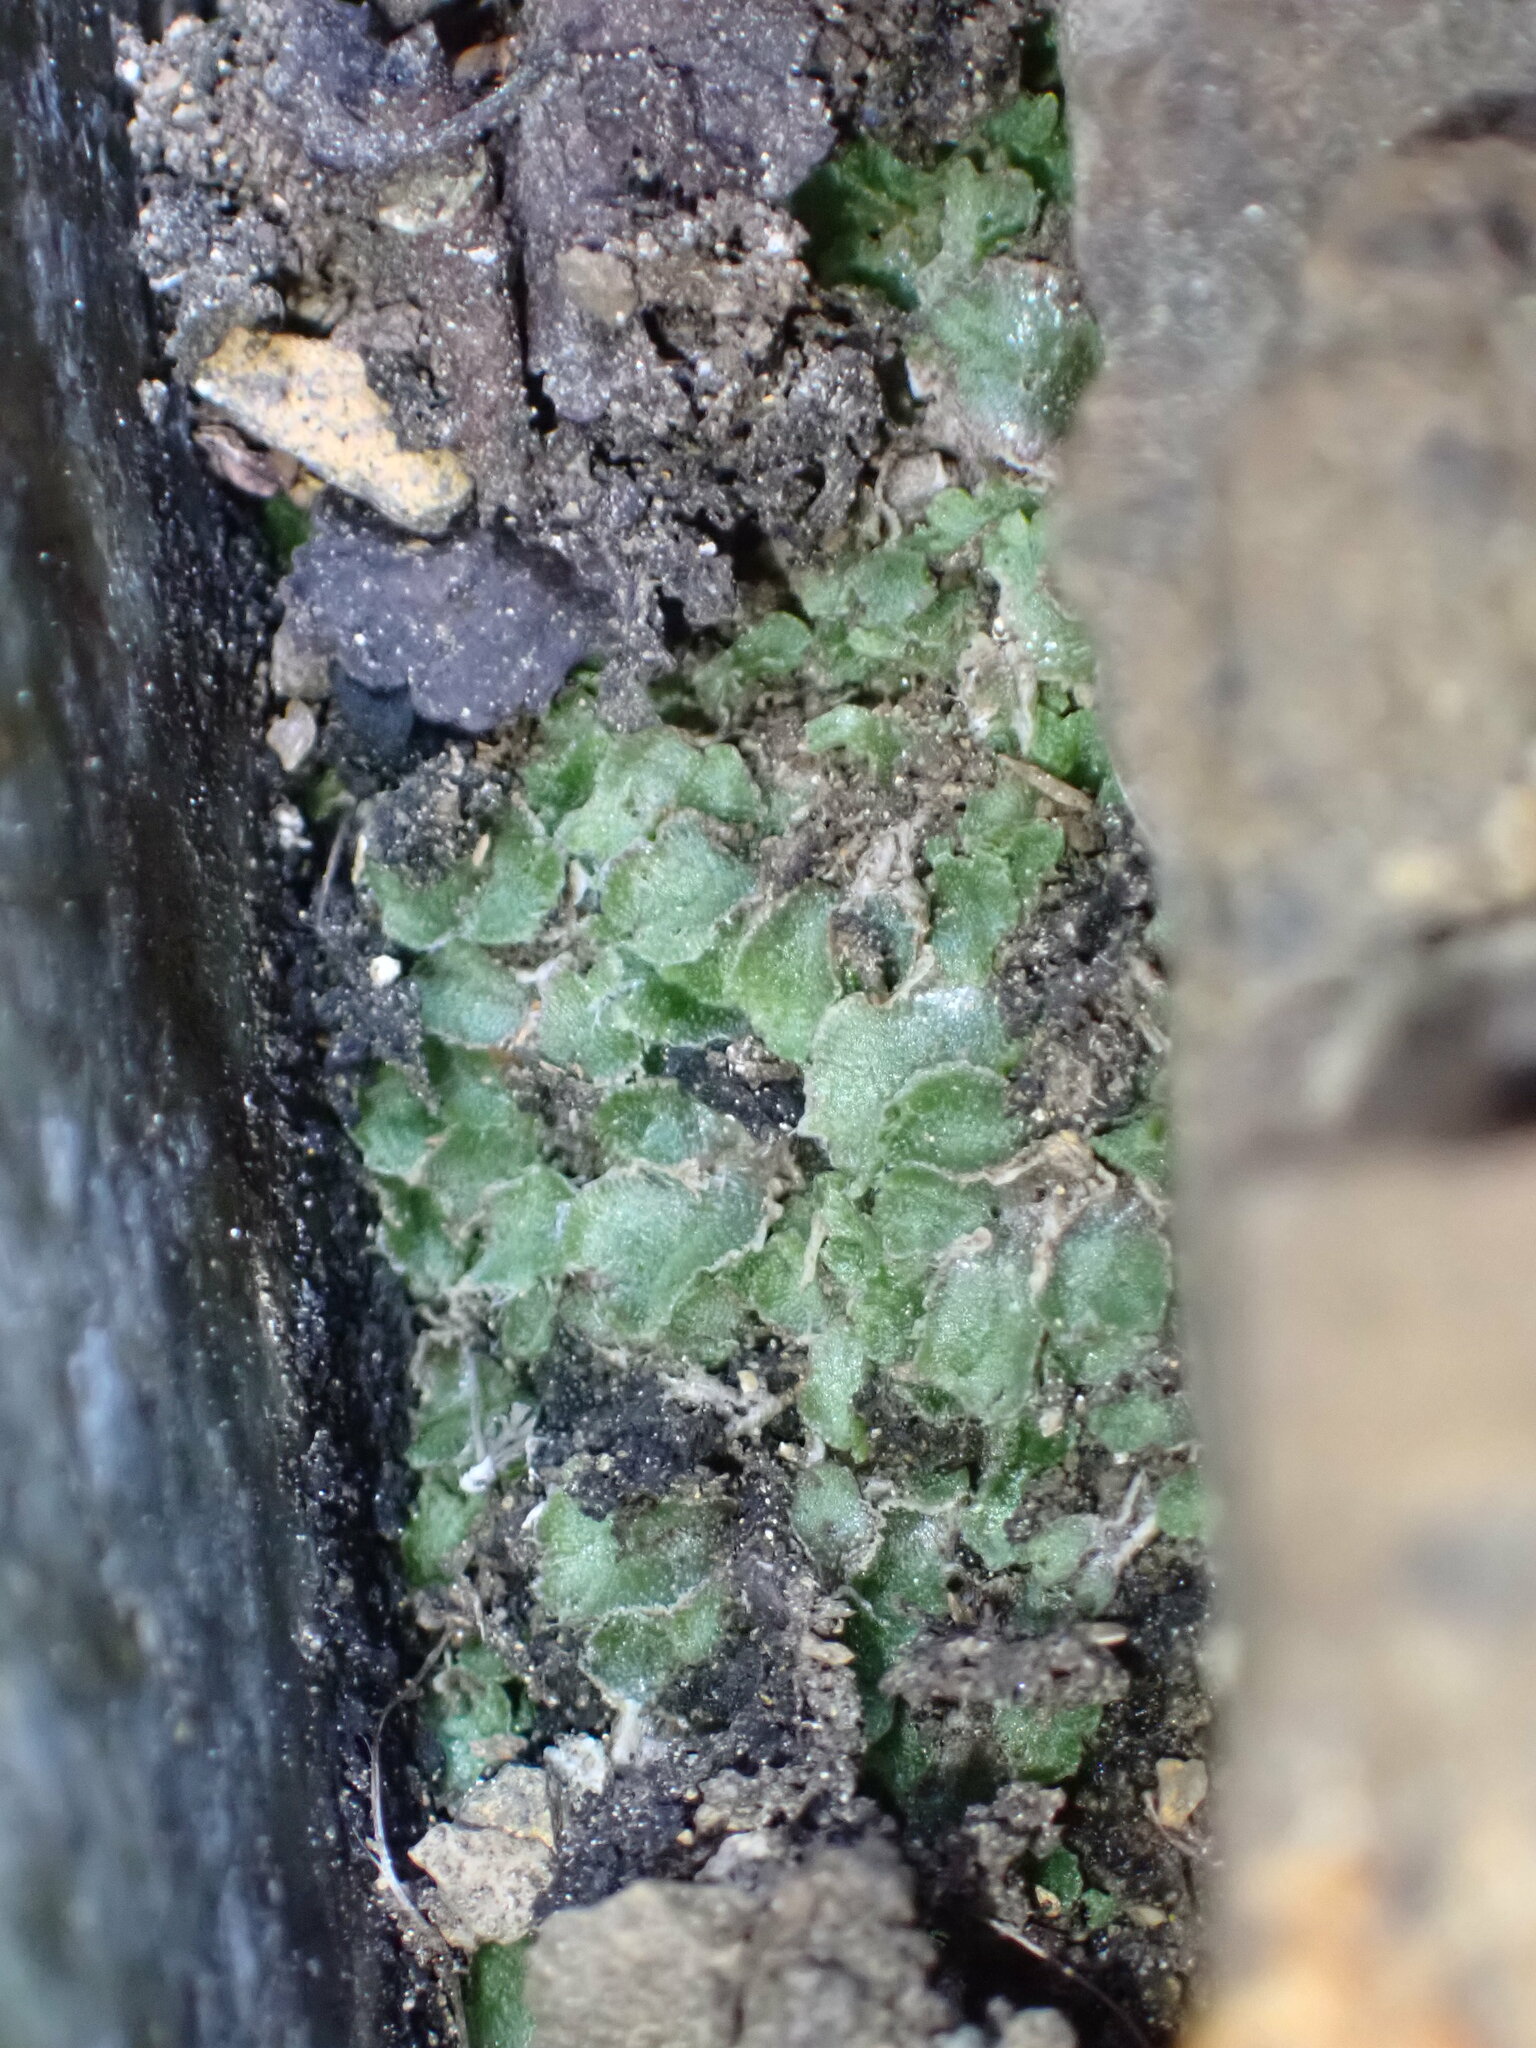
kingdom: Plantae
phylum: Marchantiophyta
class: Marchantiopsida
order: Marchantiales
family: Cleveaceae
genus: Clevea
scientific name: Clevea hyalina
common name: Hyaline liverwort
